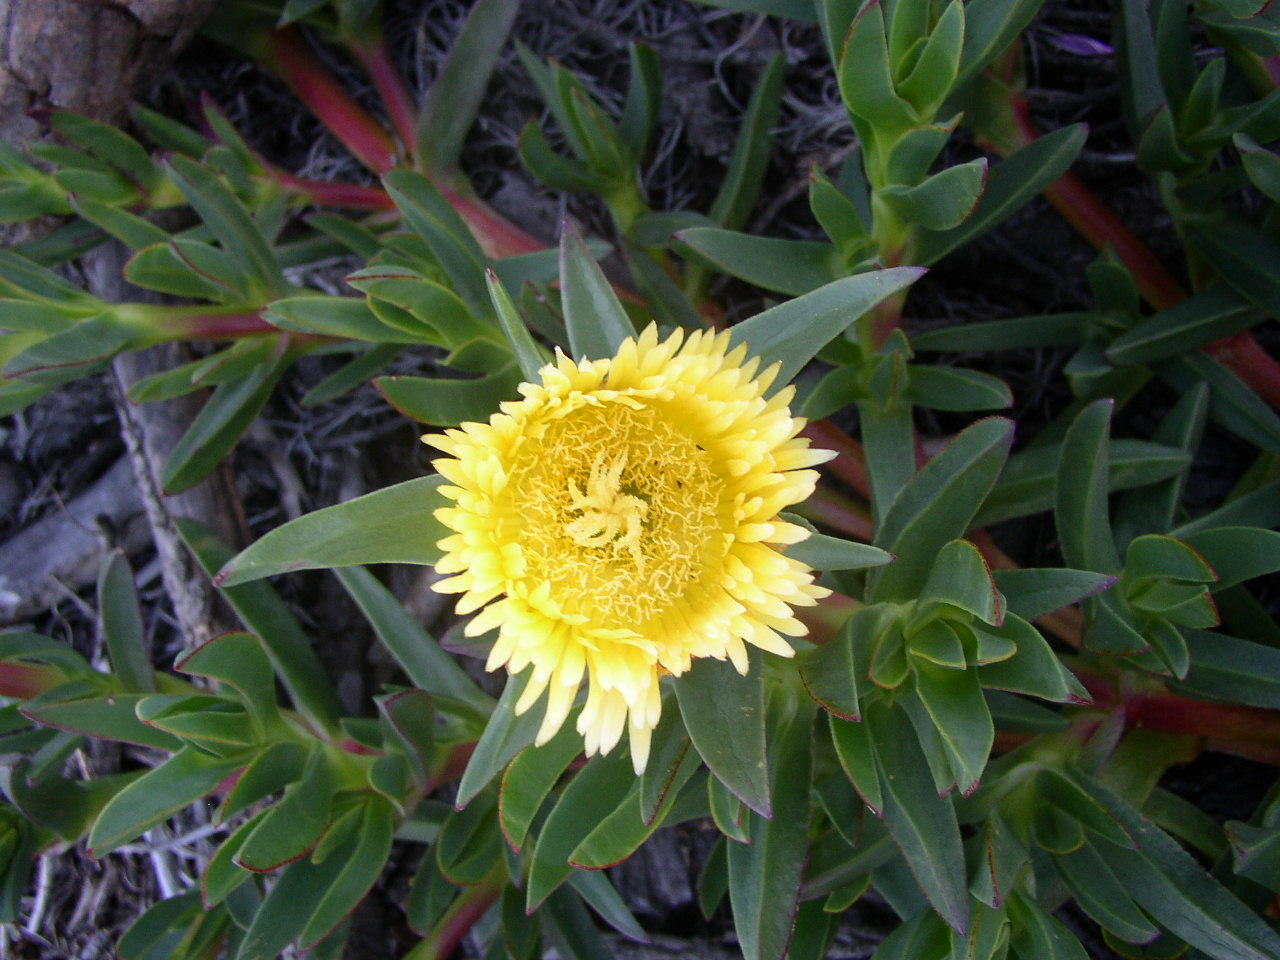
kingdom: Plantae
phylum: Tracheophyta
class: Magnoliopsida
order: Caryophyllales
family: Aizoaceae
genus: Carpobrotus
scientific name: Carpobrotus edulis
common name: Hottentot-fig
